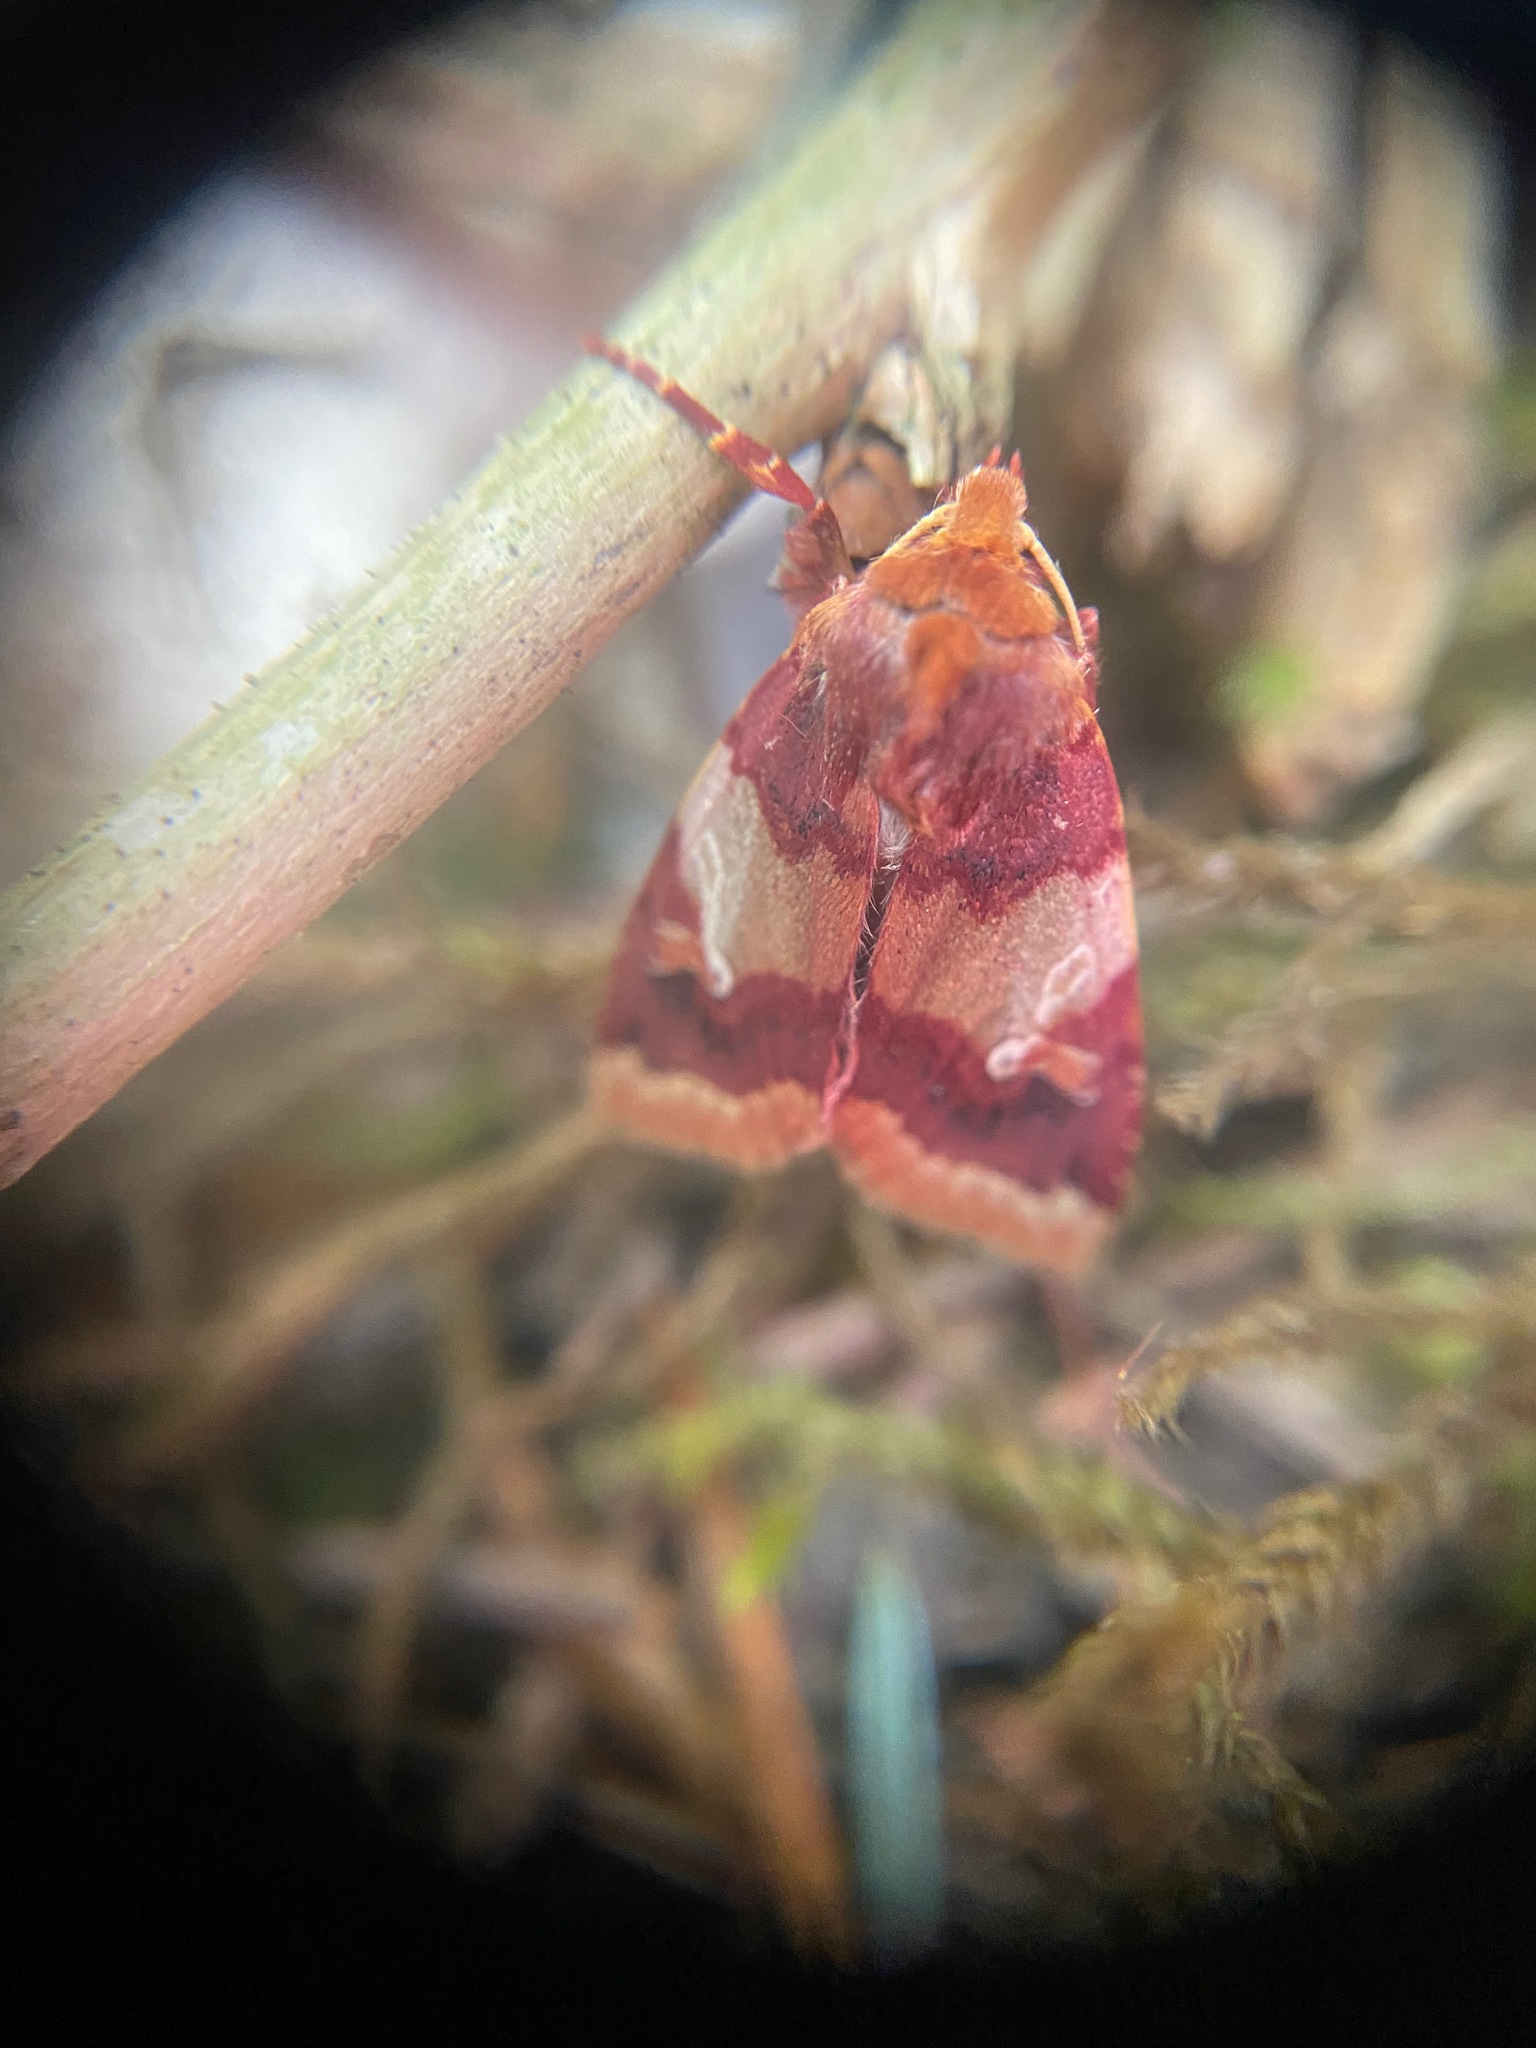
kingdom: Animalia
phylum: Arthropoda
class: Insecta
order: Lepidoptera
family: Noctuidae
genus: Agrochola
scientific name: Agrochola pulchella
